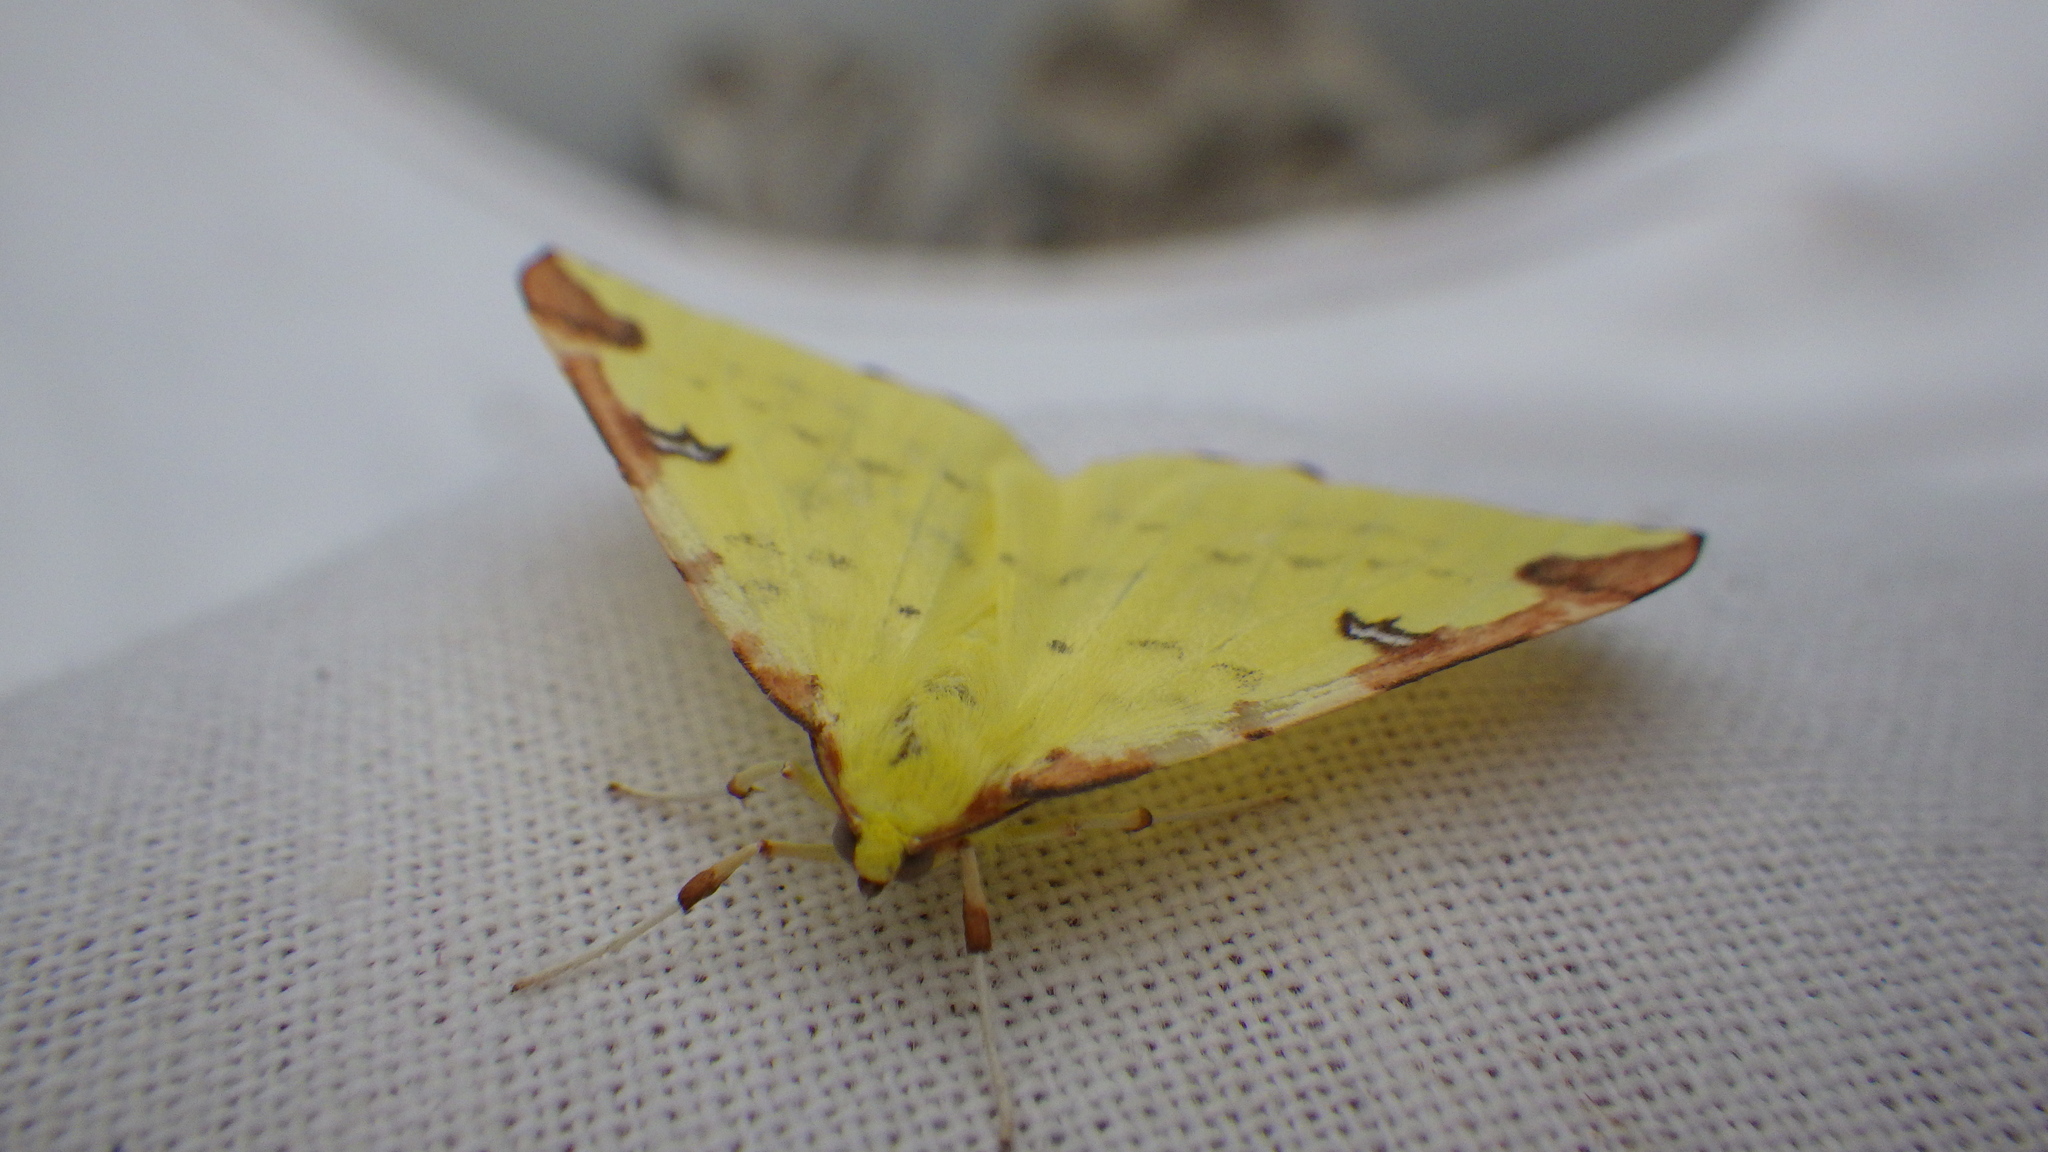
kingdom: Animalia
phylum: Arthropoda
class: Insecta
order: Lepidoptera
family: Geometridae
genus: Opisthograptis
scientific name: Opisthograptis luteolata
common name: Brimstone moth
